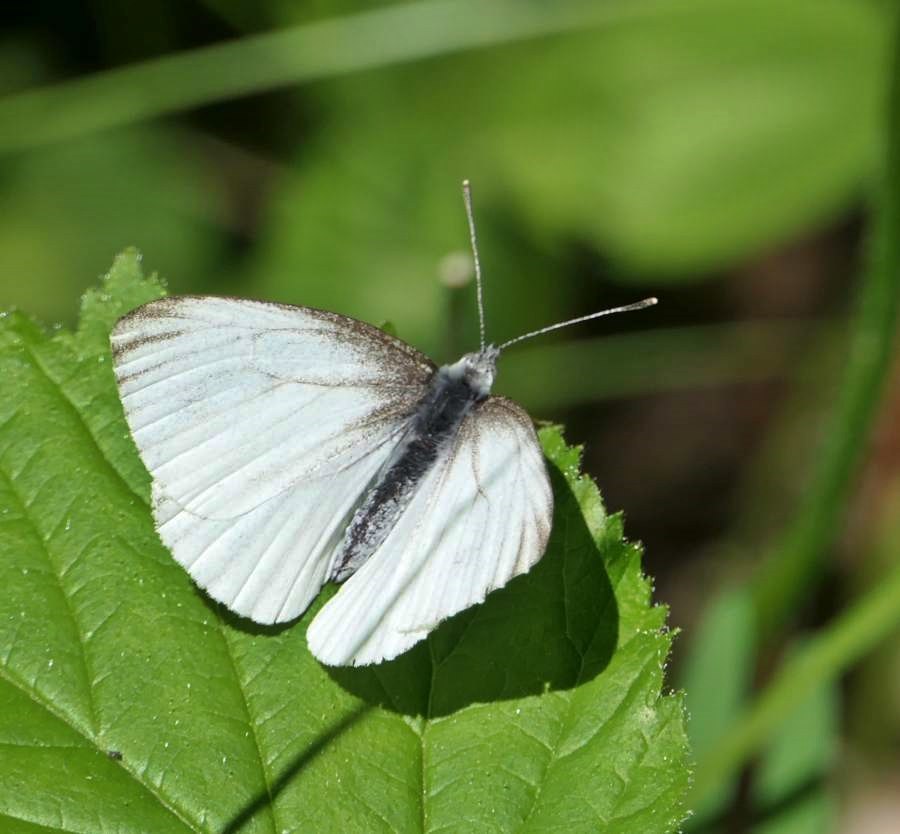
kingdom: Animalia
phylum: Arthropoda
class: Insecta
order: Lepidoptera
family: Pieridae
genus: Pieris
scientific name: Pieris oleracea
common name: Mustard white
